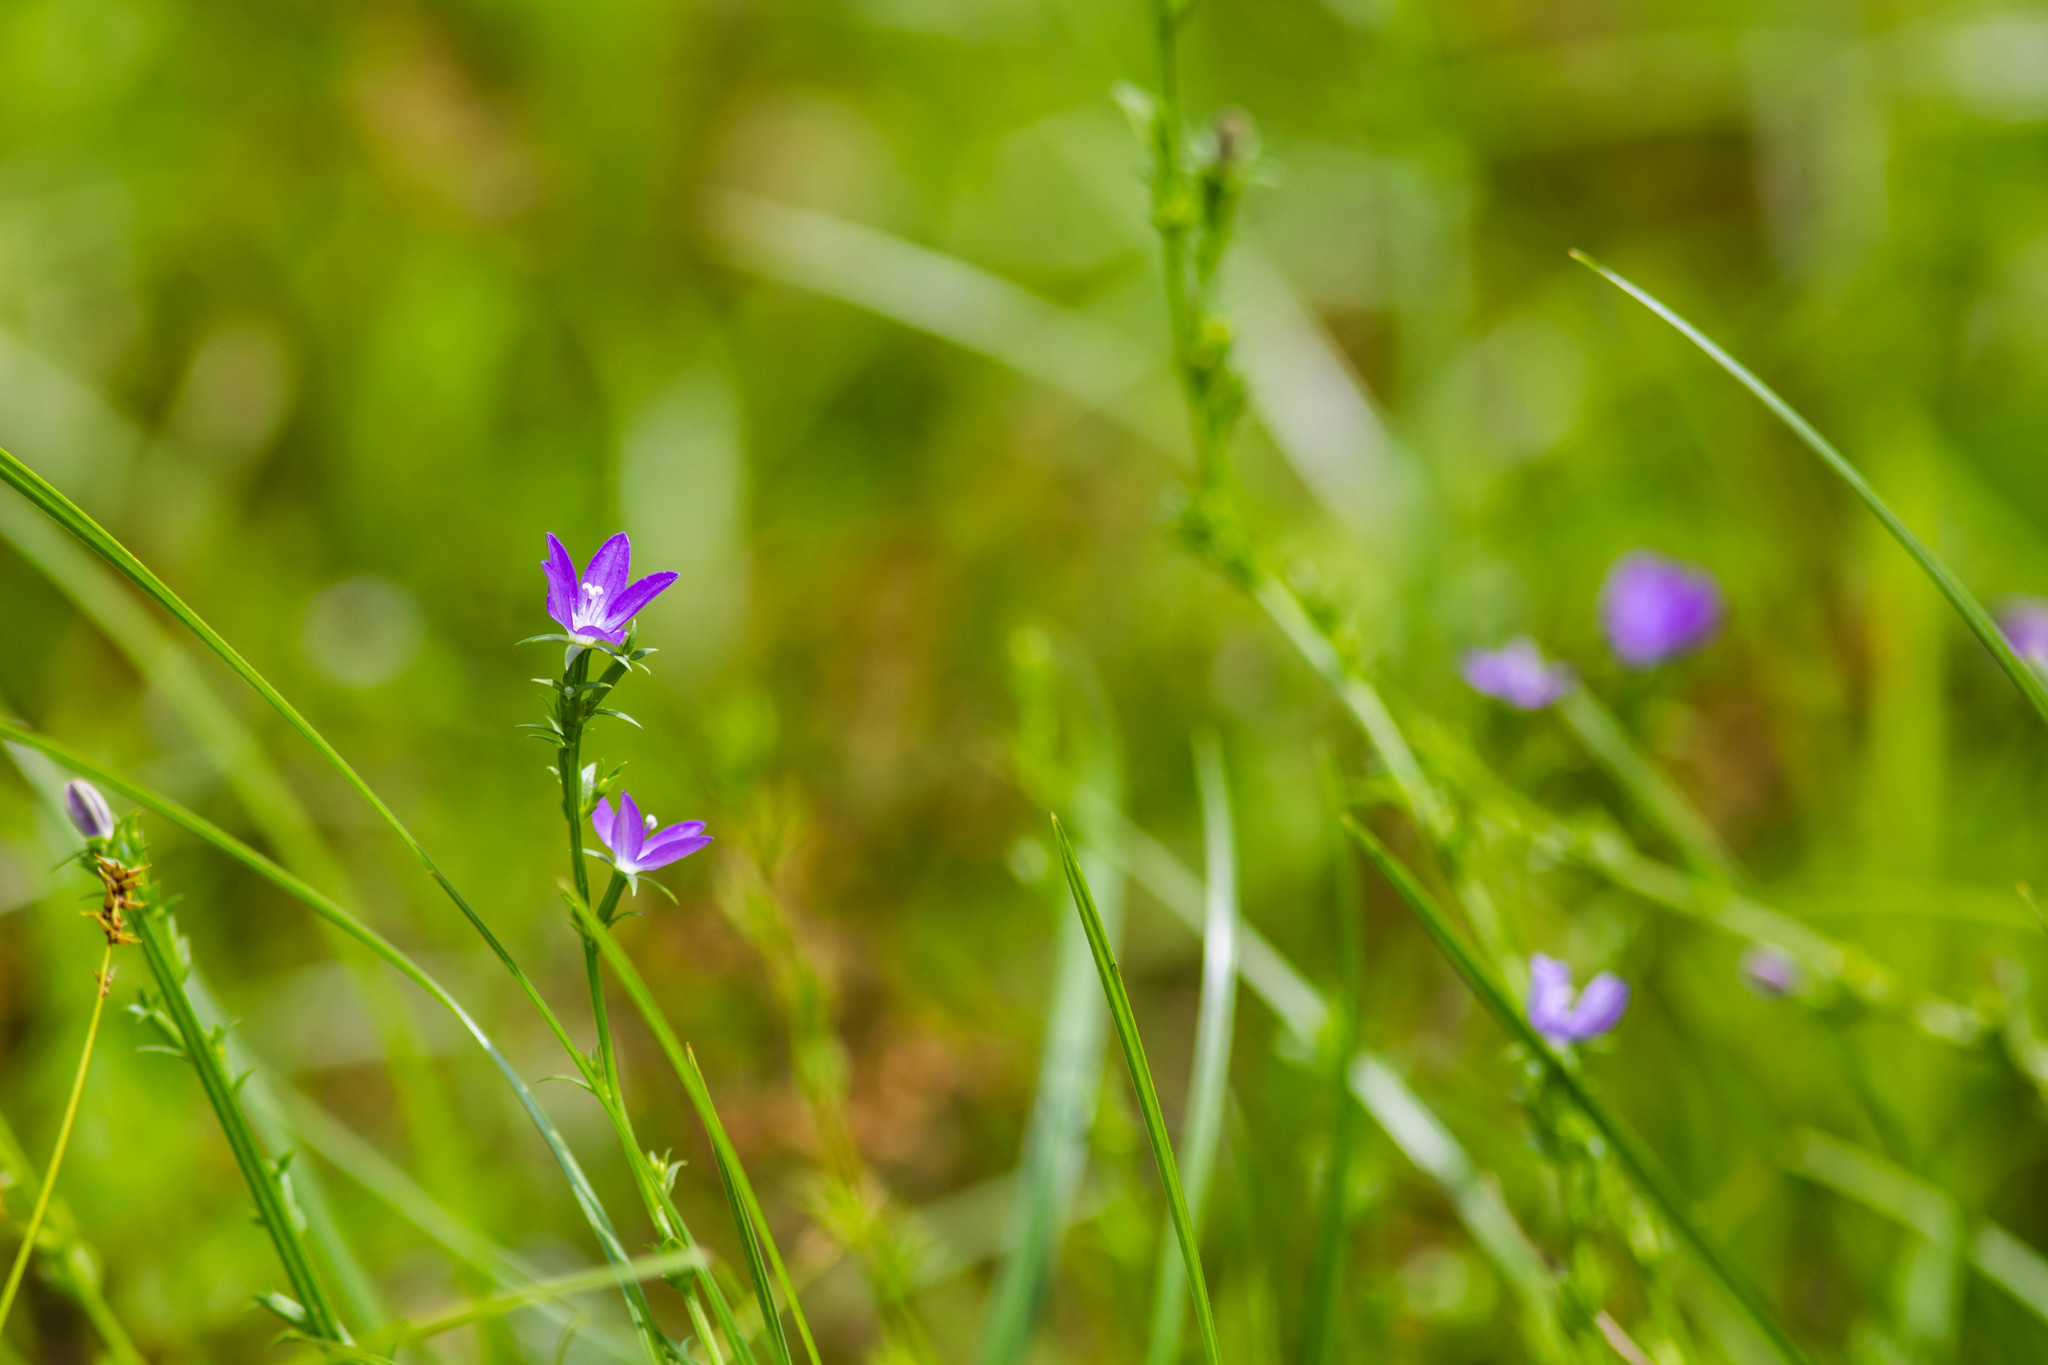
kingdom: Plantae
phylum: Tracheophyta
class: Magnoliopsida
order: Asterales
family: Campanulaceae
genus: Triodanis
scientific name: Triodanis biflora
